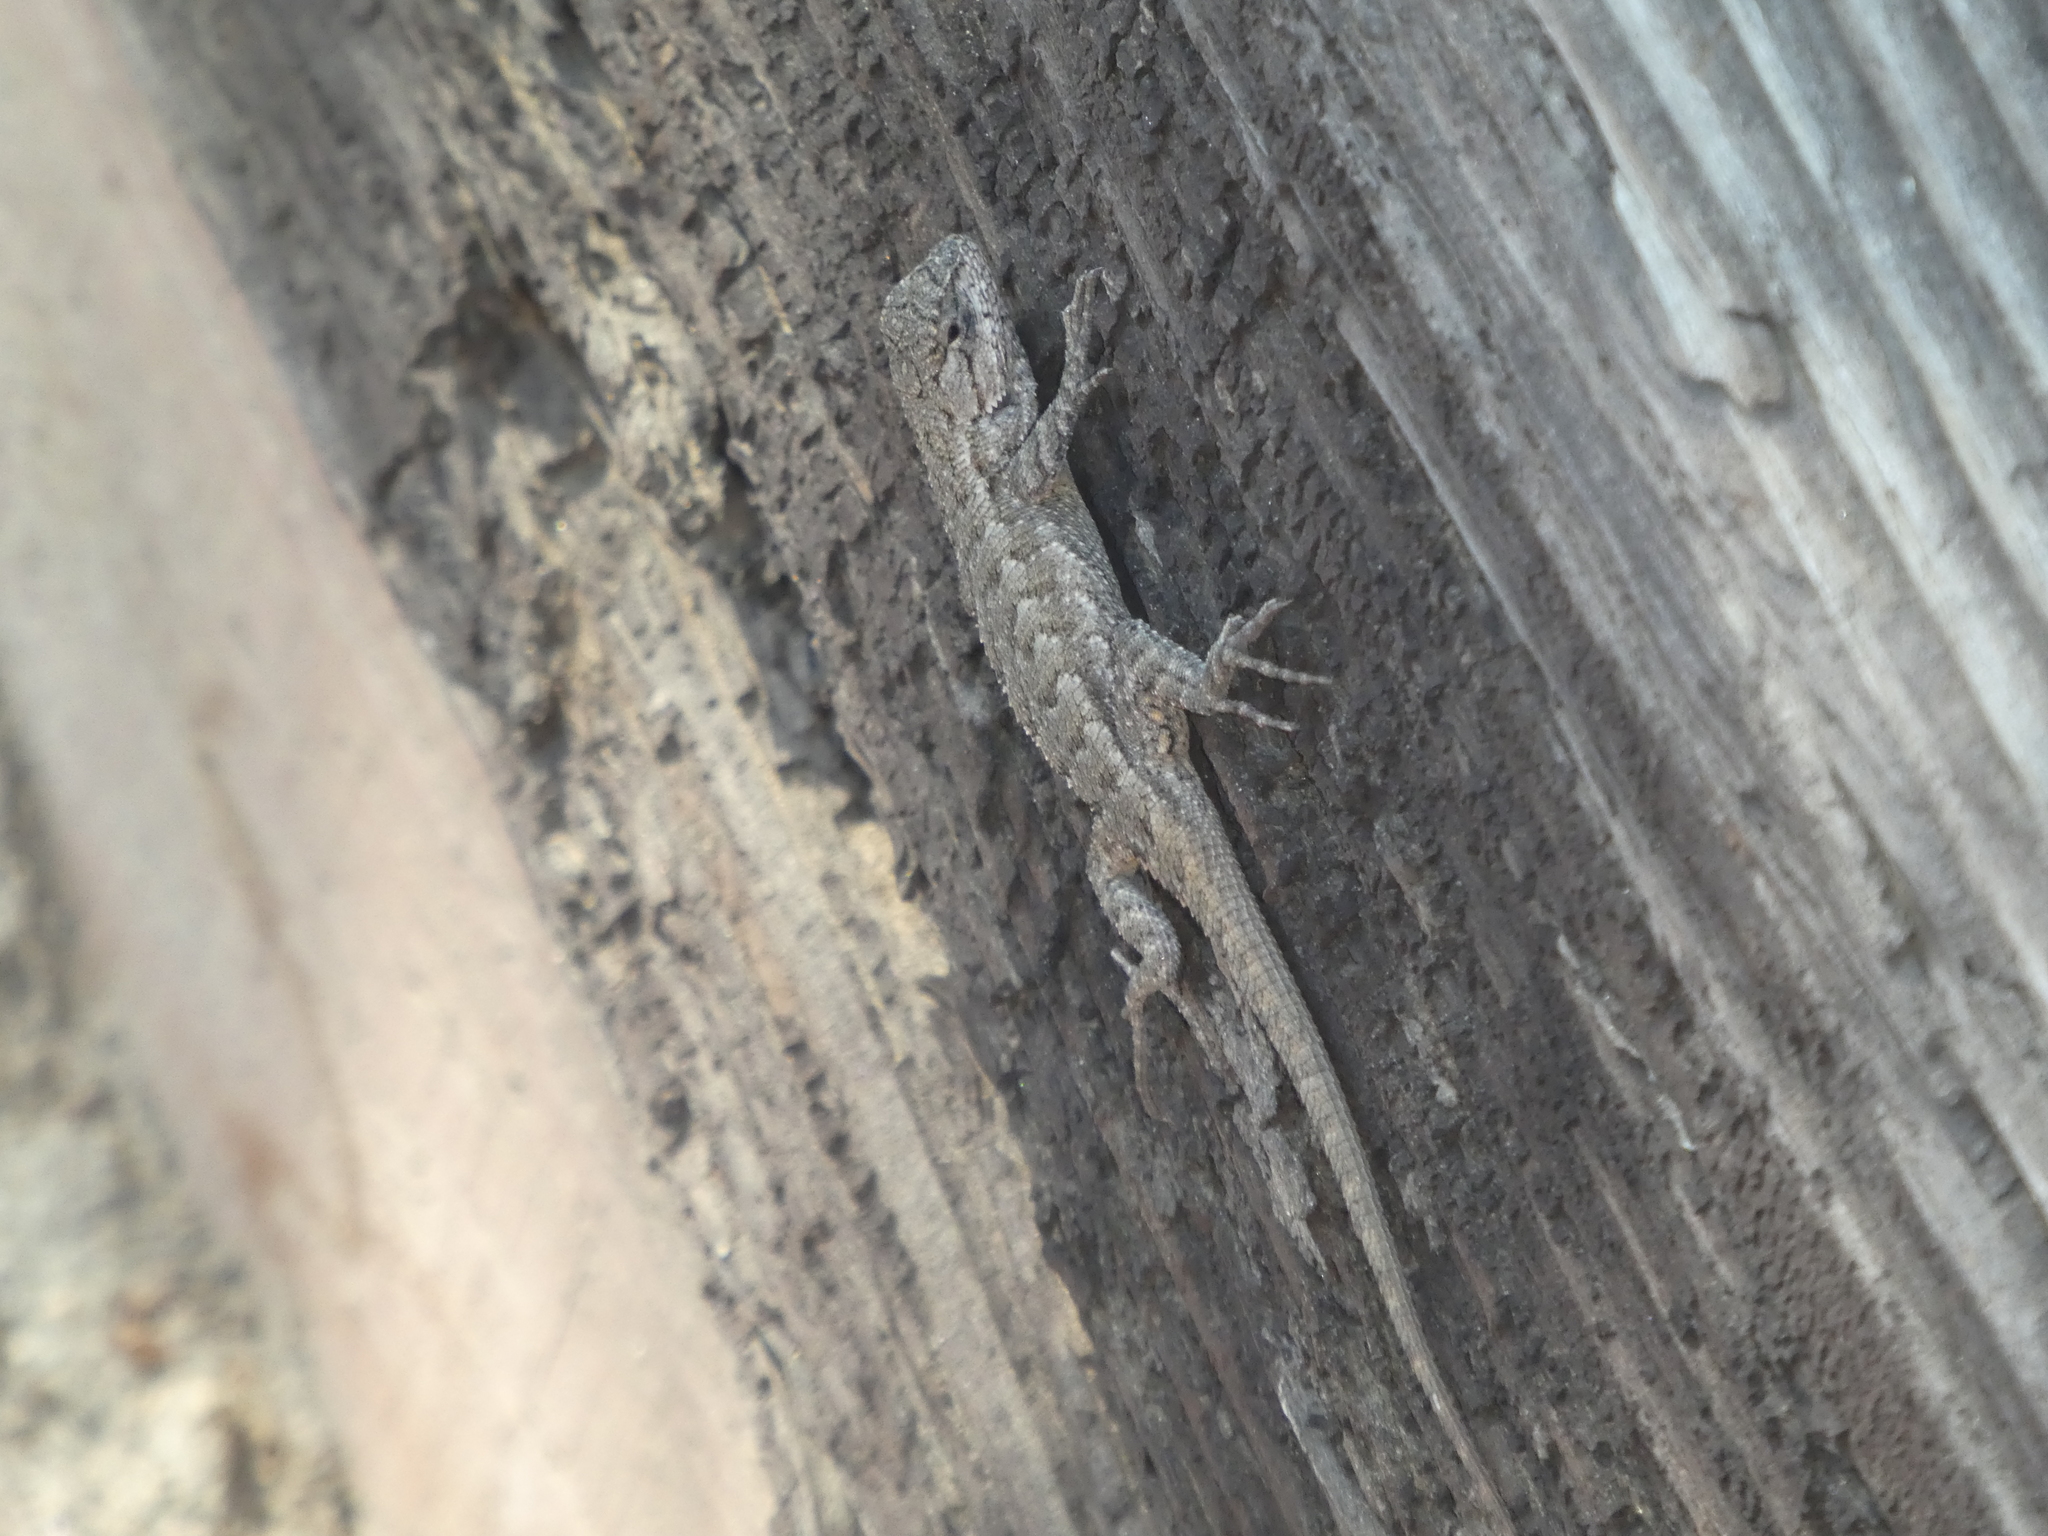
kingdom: Animalia
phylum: Chordata
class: Squamata
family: Phrynosomatidae
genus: Sceloporus
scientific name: Sceloporus occidentalis
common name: Western fence lizard
